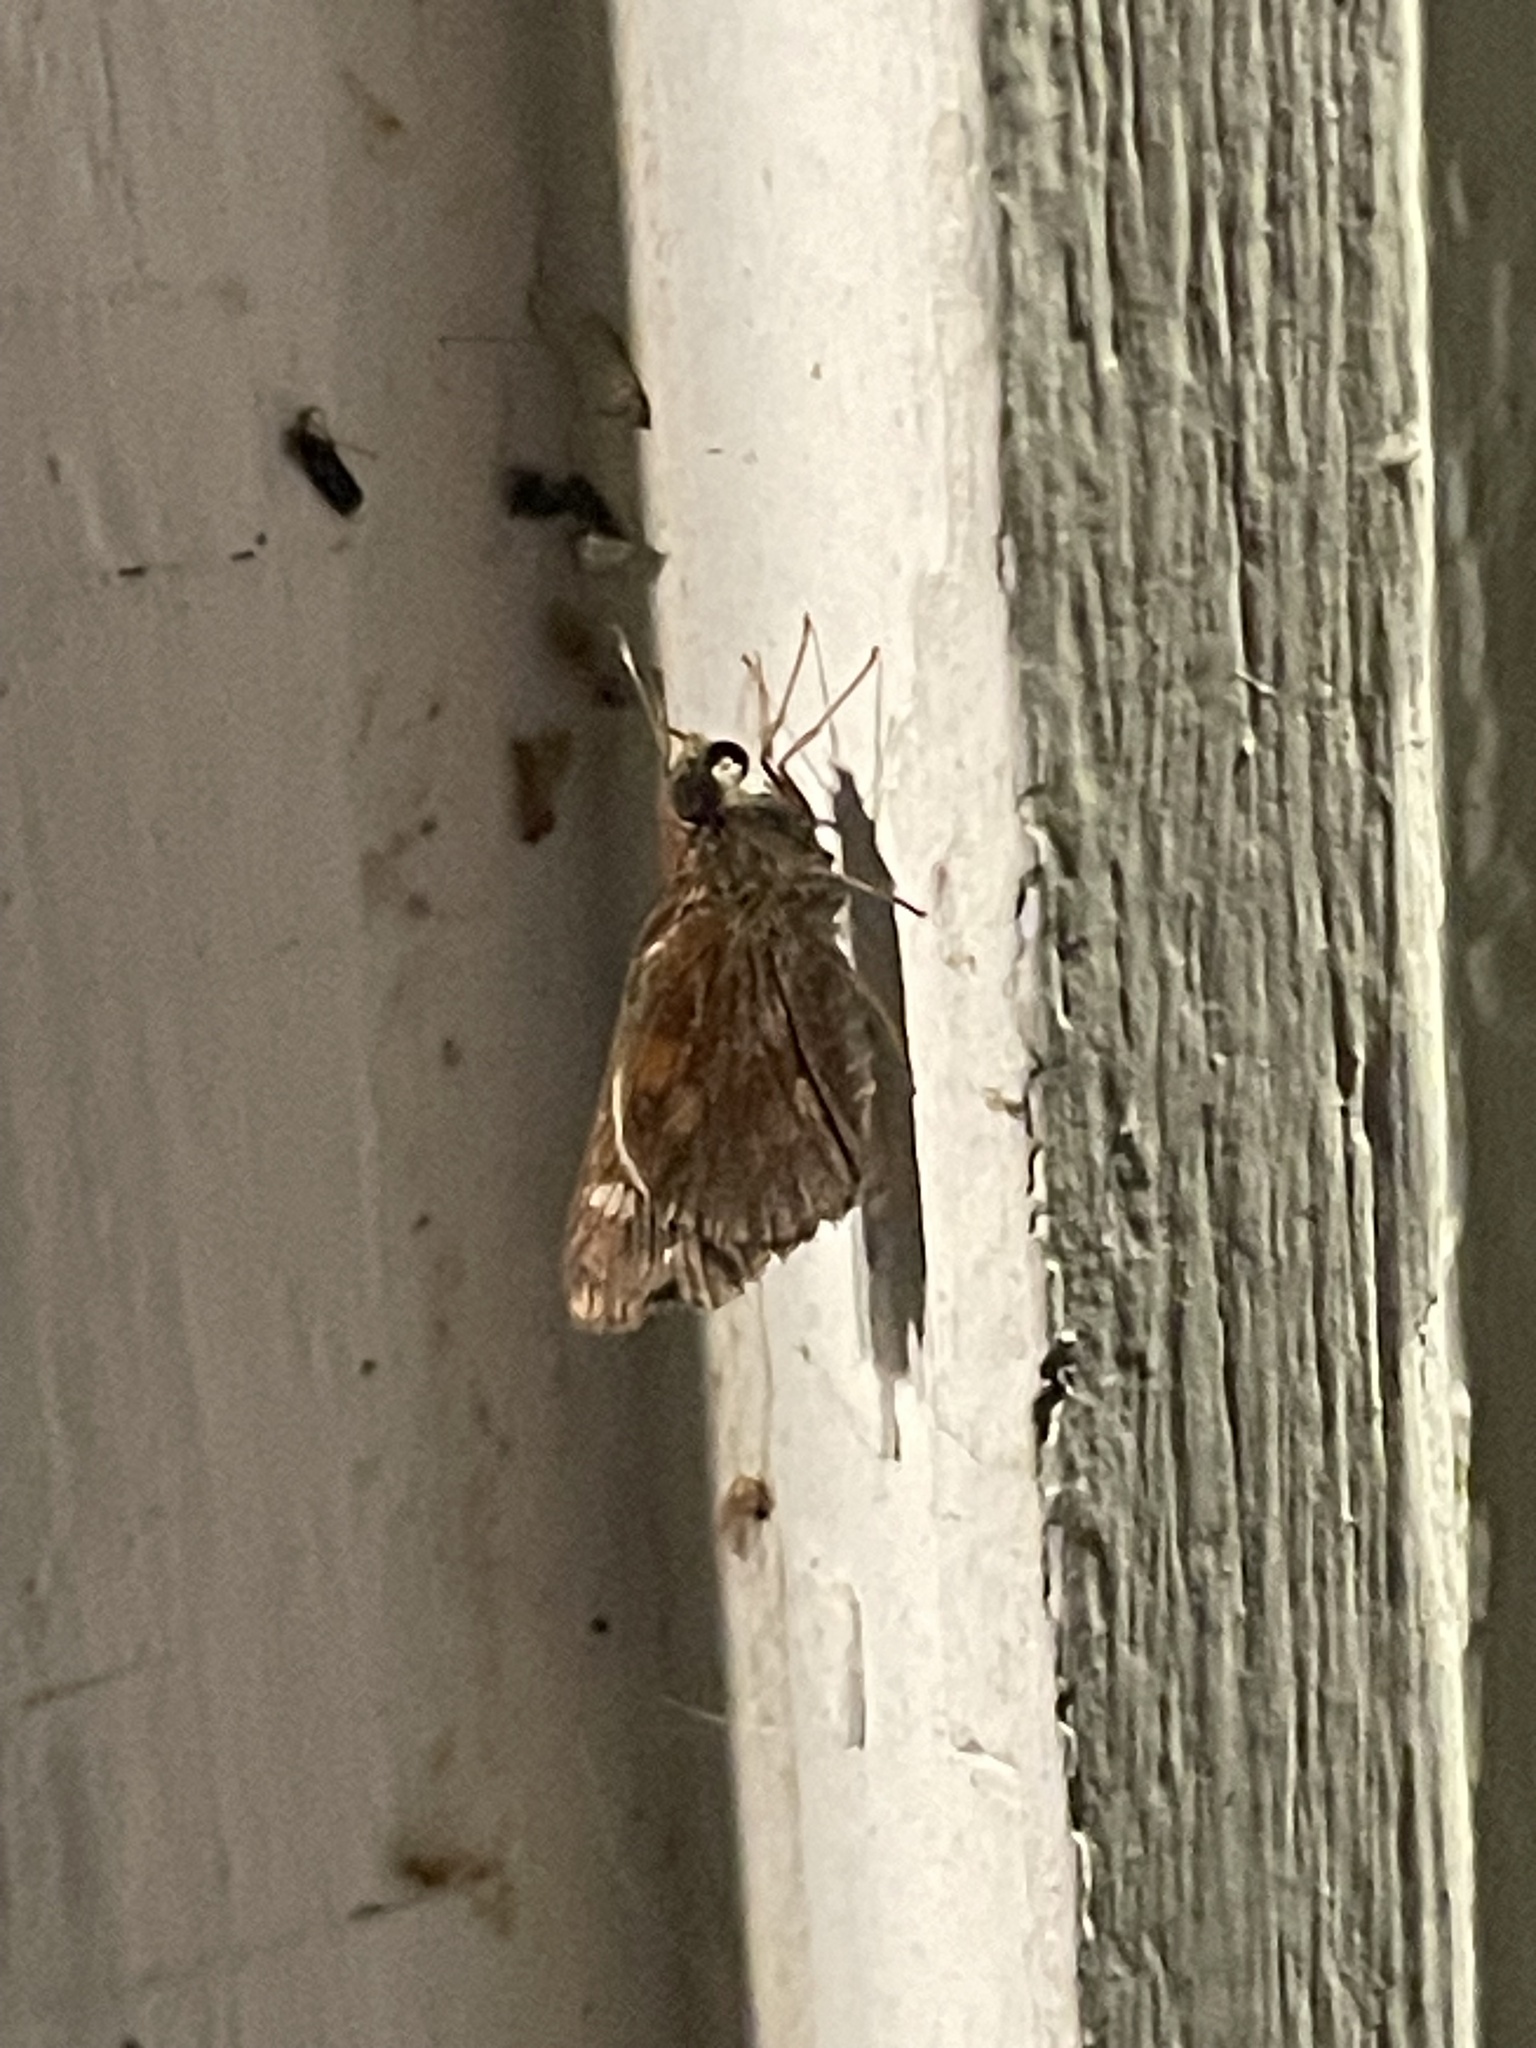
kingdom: Animalia
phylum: Arthropoda
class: Insecta
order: Lepidoptera
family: Hesperiidae
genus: Lon
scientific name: Lon zabulon
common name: Zabulon skipper
